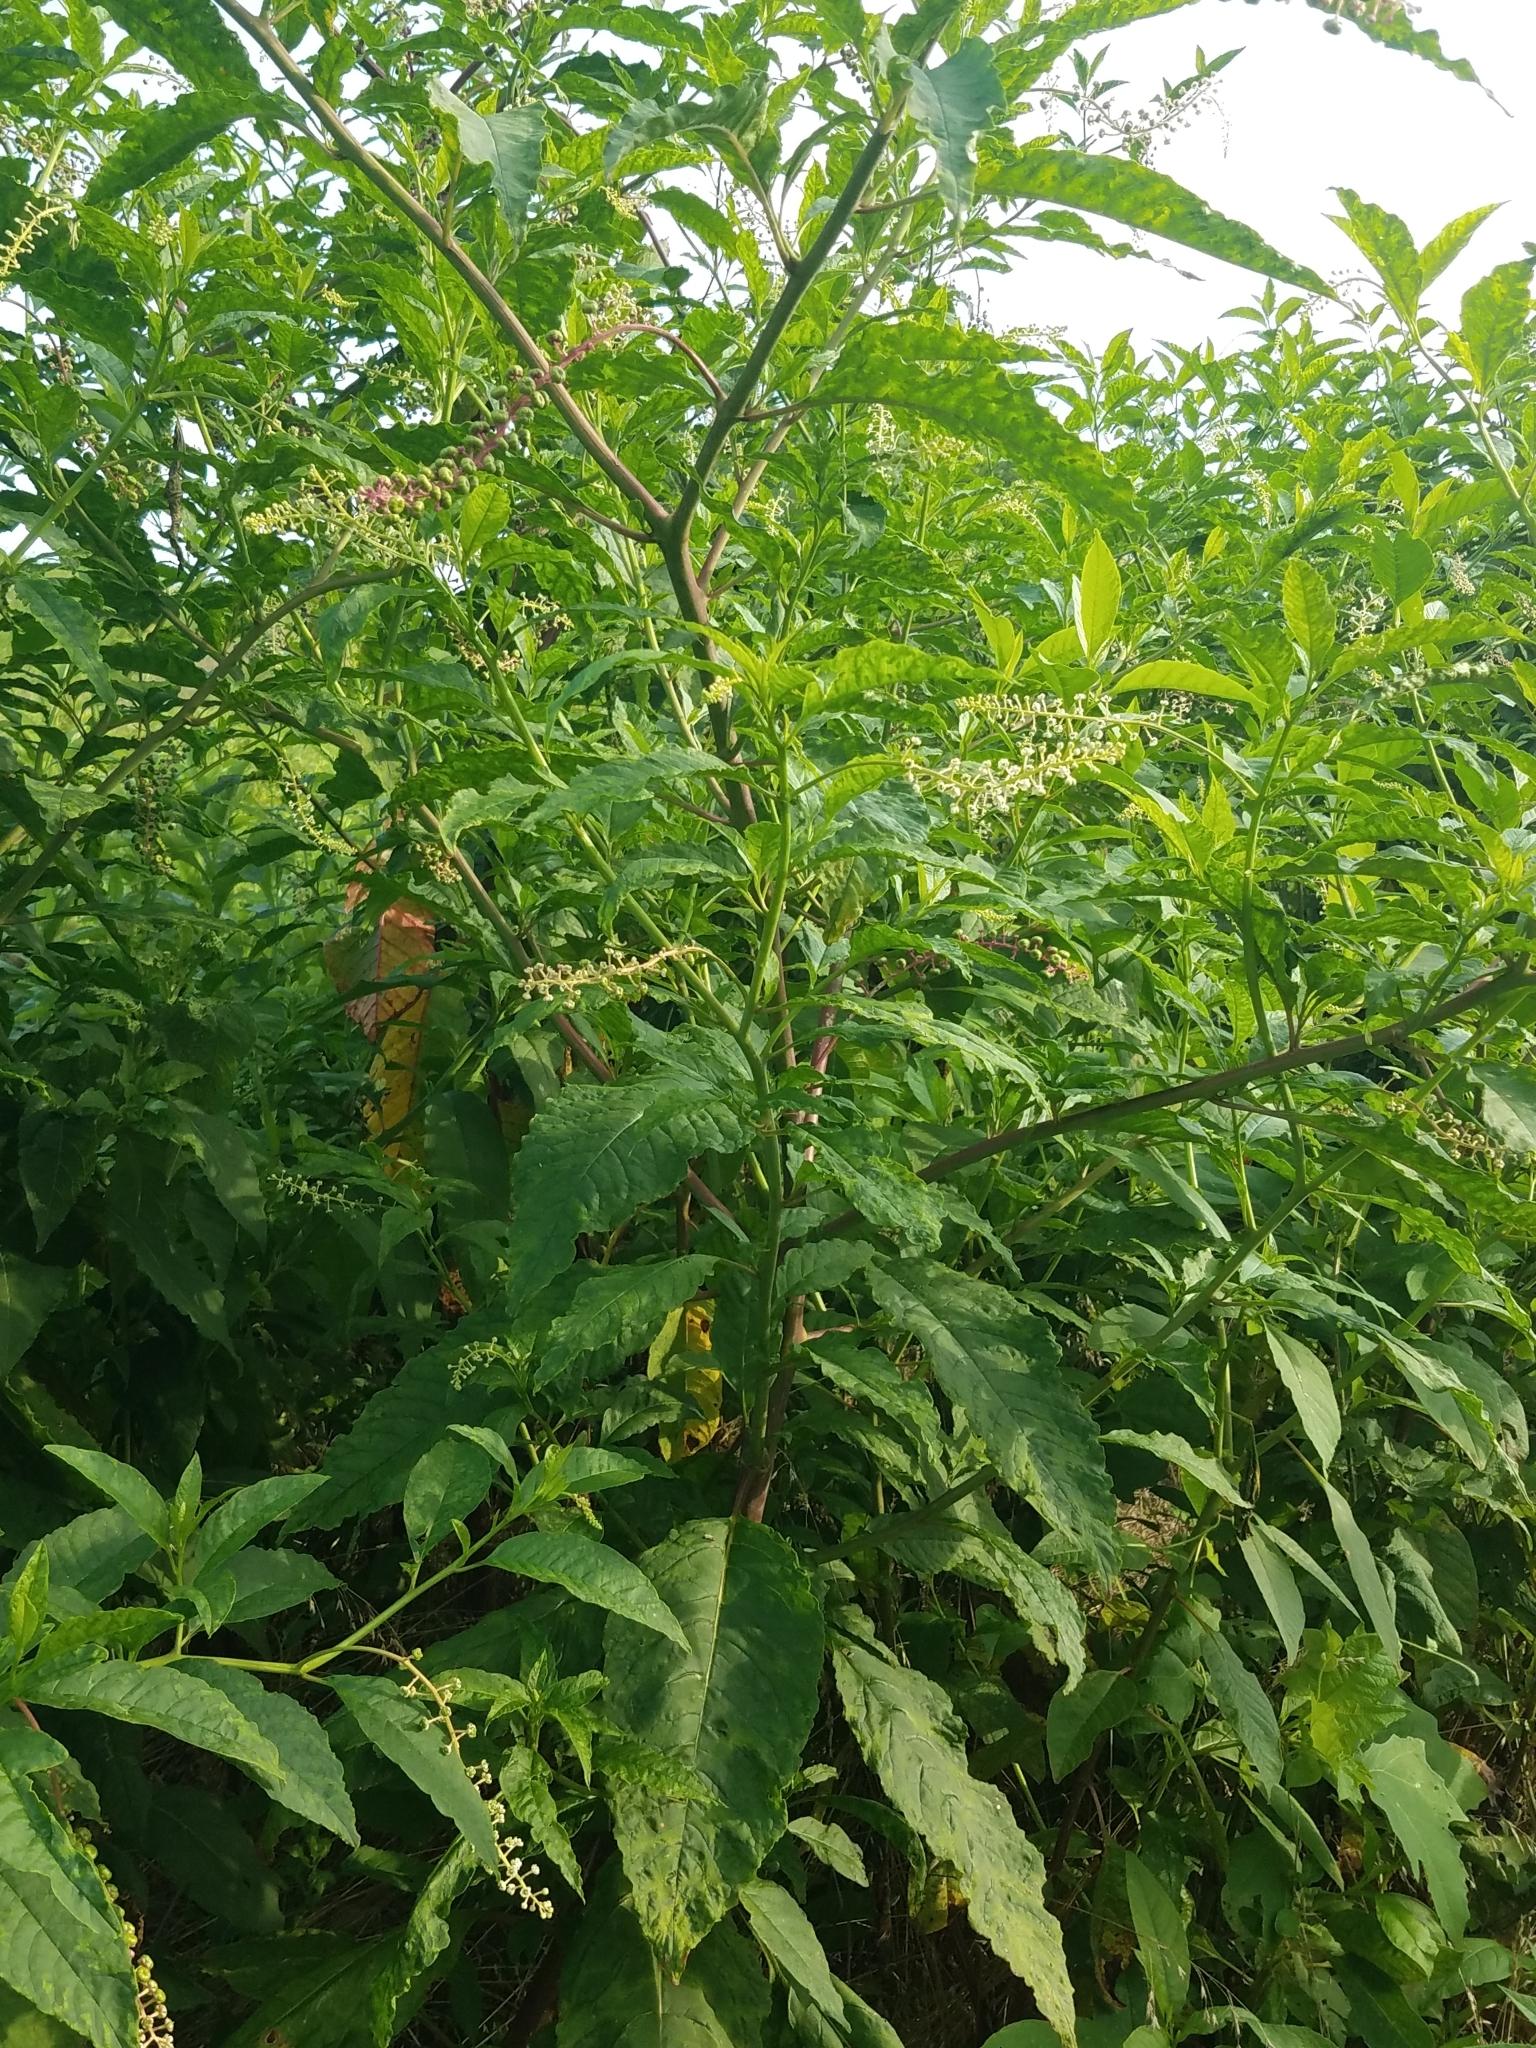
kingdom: Plantae
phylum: Tracheophyta
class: Magnoliopsida
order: Caryophyllales
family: Phytolaccaceae
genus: Phytolacca
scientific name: Phytolacca americana
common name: American pokeweed
